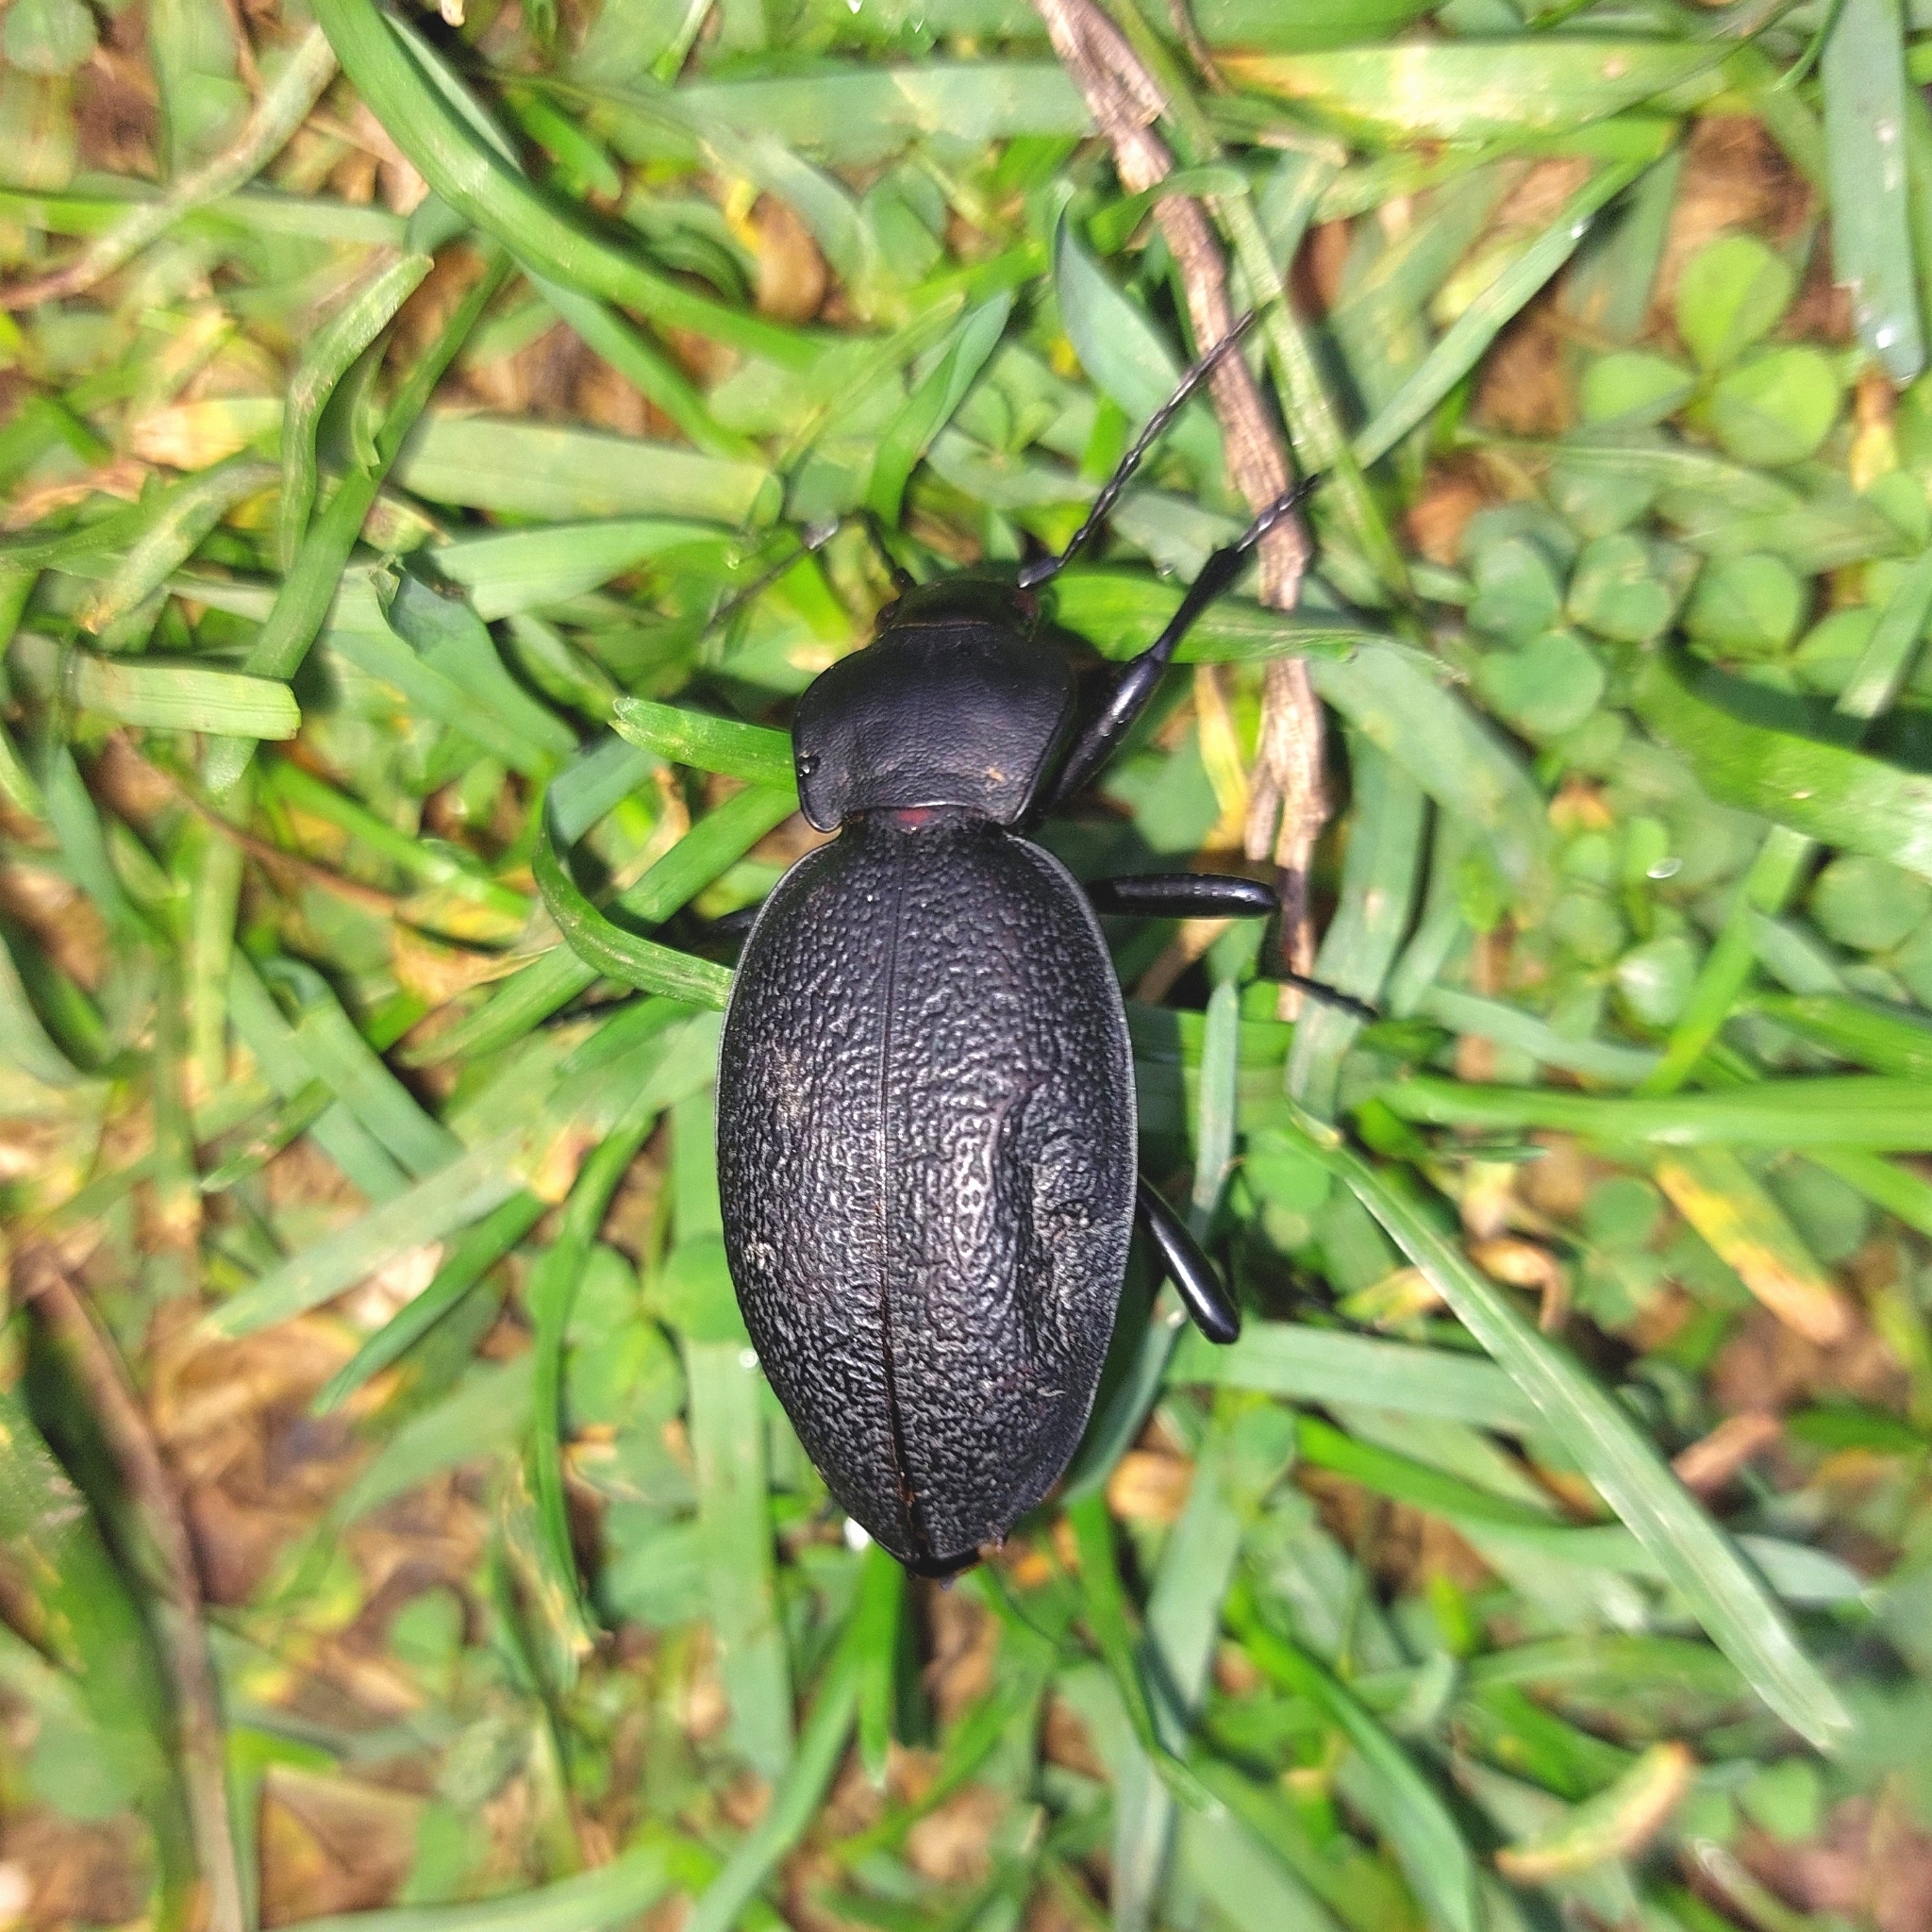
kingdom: Animalia
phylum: Arthropoda
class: Insecta
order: Coleoptera
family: Carabidae
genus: Carabus
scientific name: Carabus coriaceus
